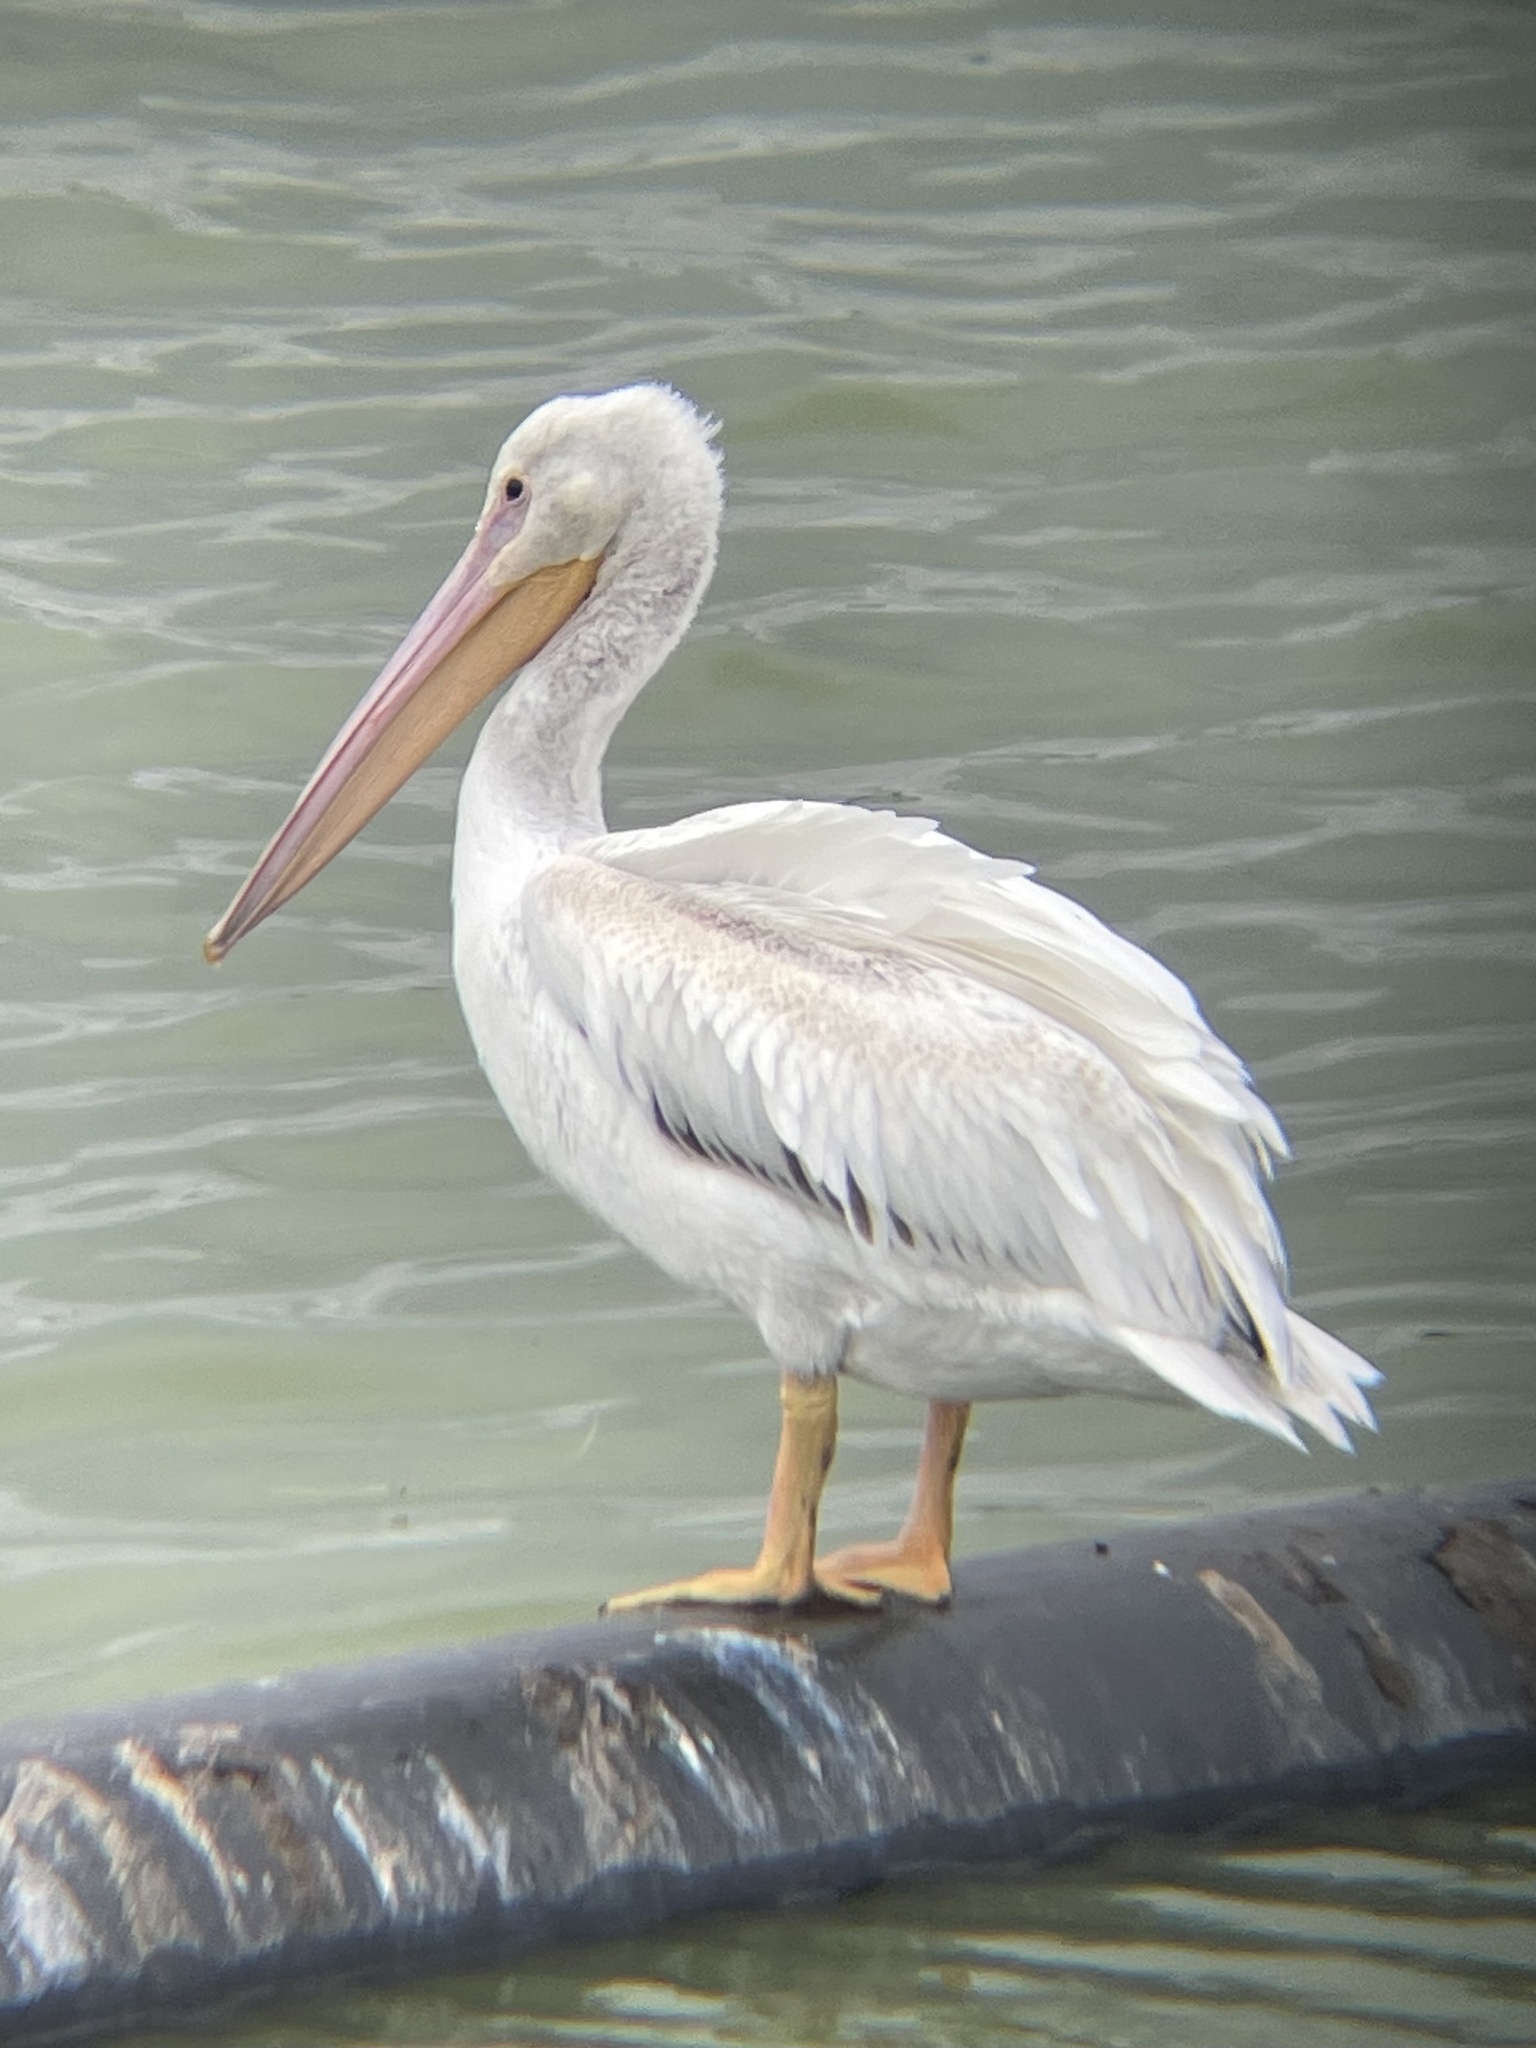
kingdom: Animalia
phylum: Chordata
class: Aves
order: Pelecaniformes
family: Pelecanidae
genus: Pelecanus
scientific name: Pelecanus erythrorhynchos
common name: American white pelican
